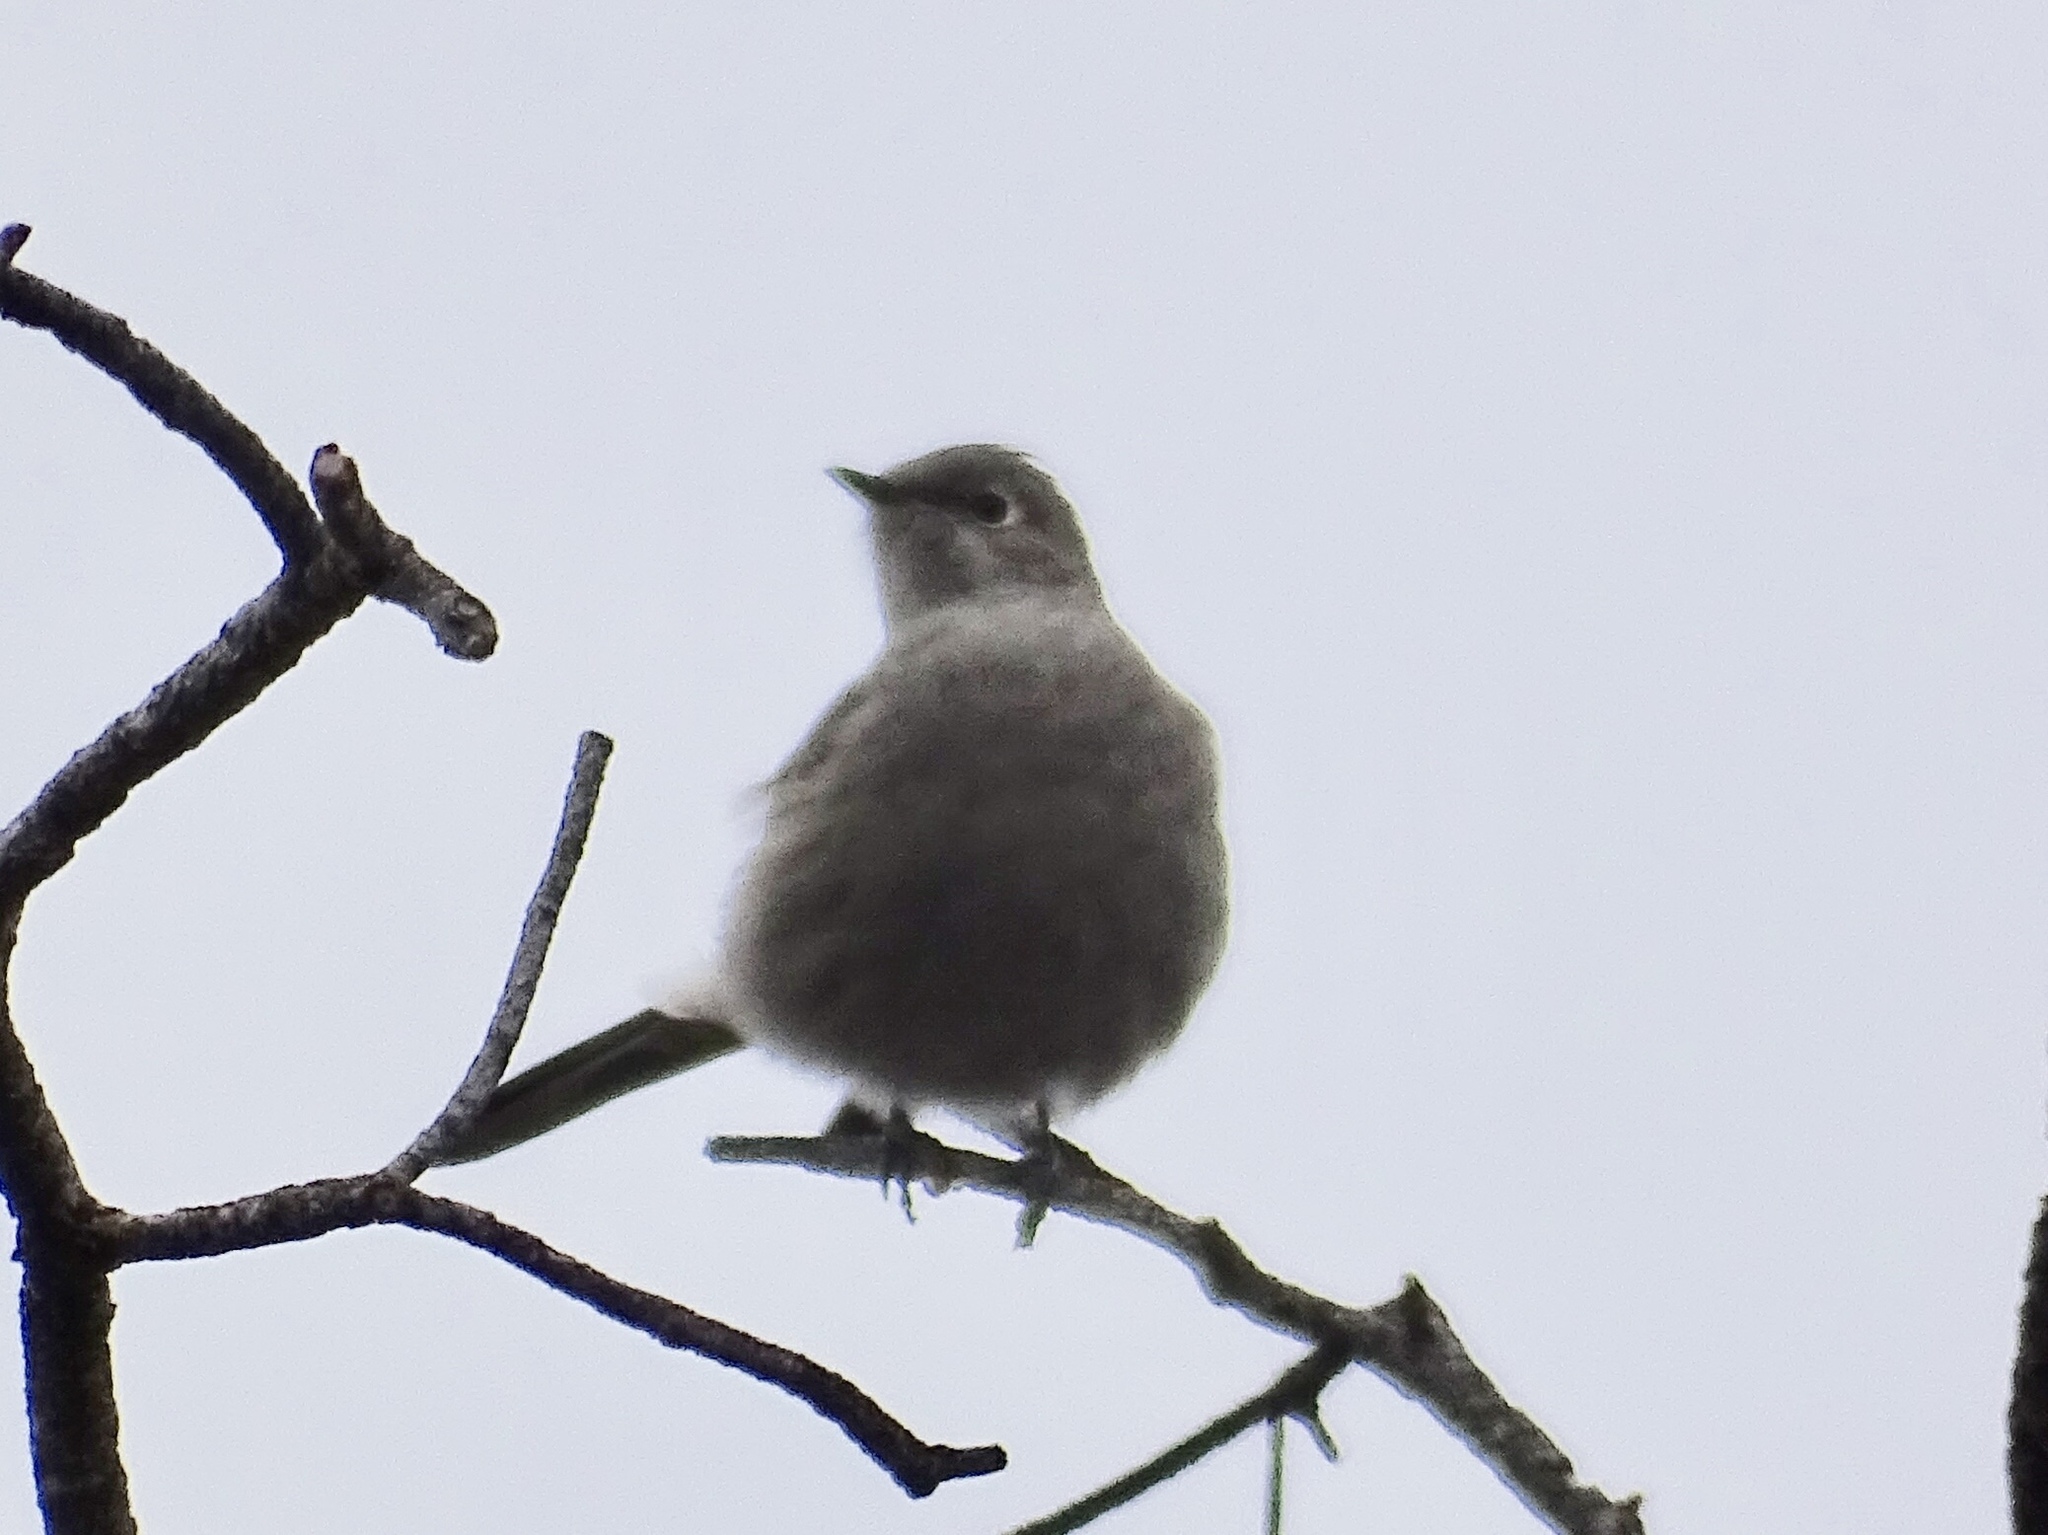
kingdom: Animalia
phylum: Chordata
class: Aves
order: Passeriformes
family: Turdidae
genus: Myadestes
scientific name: Myadestes townsendi
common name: Townsend's solitaire
